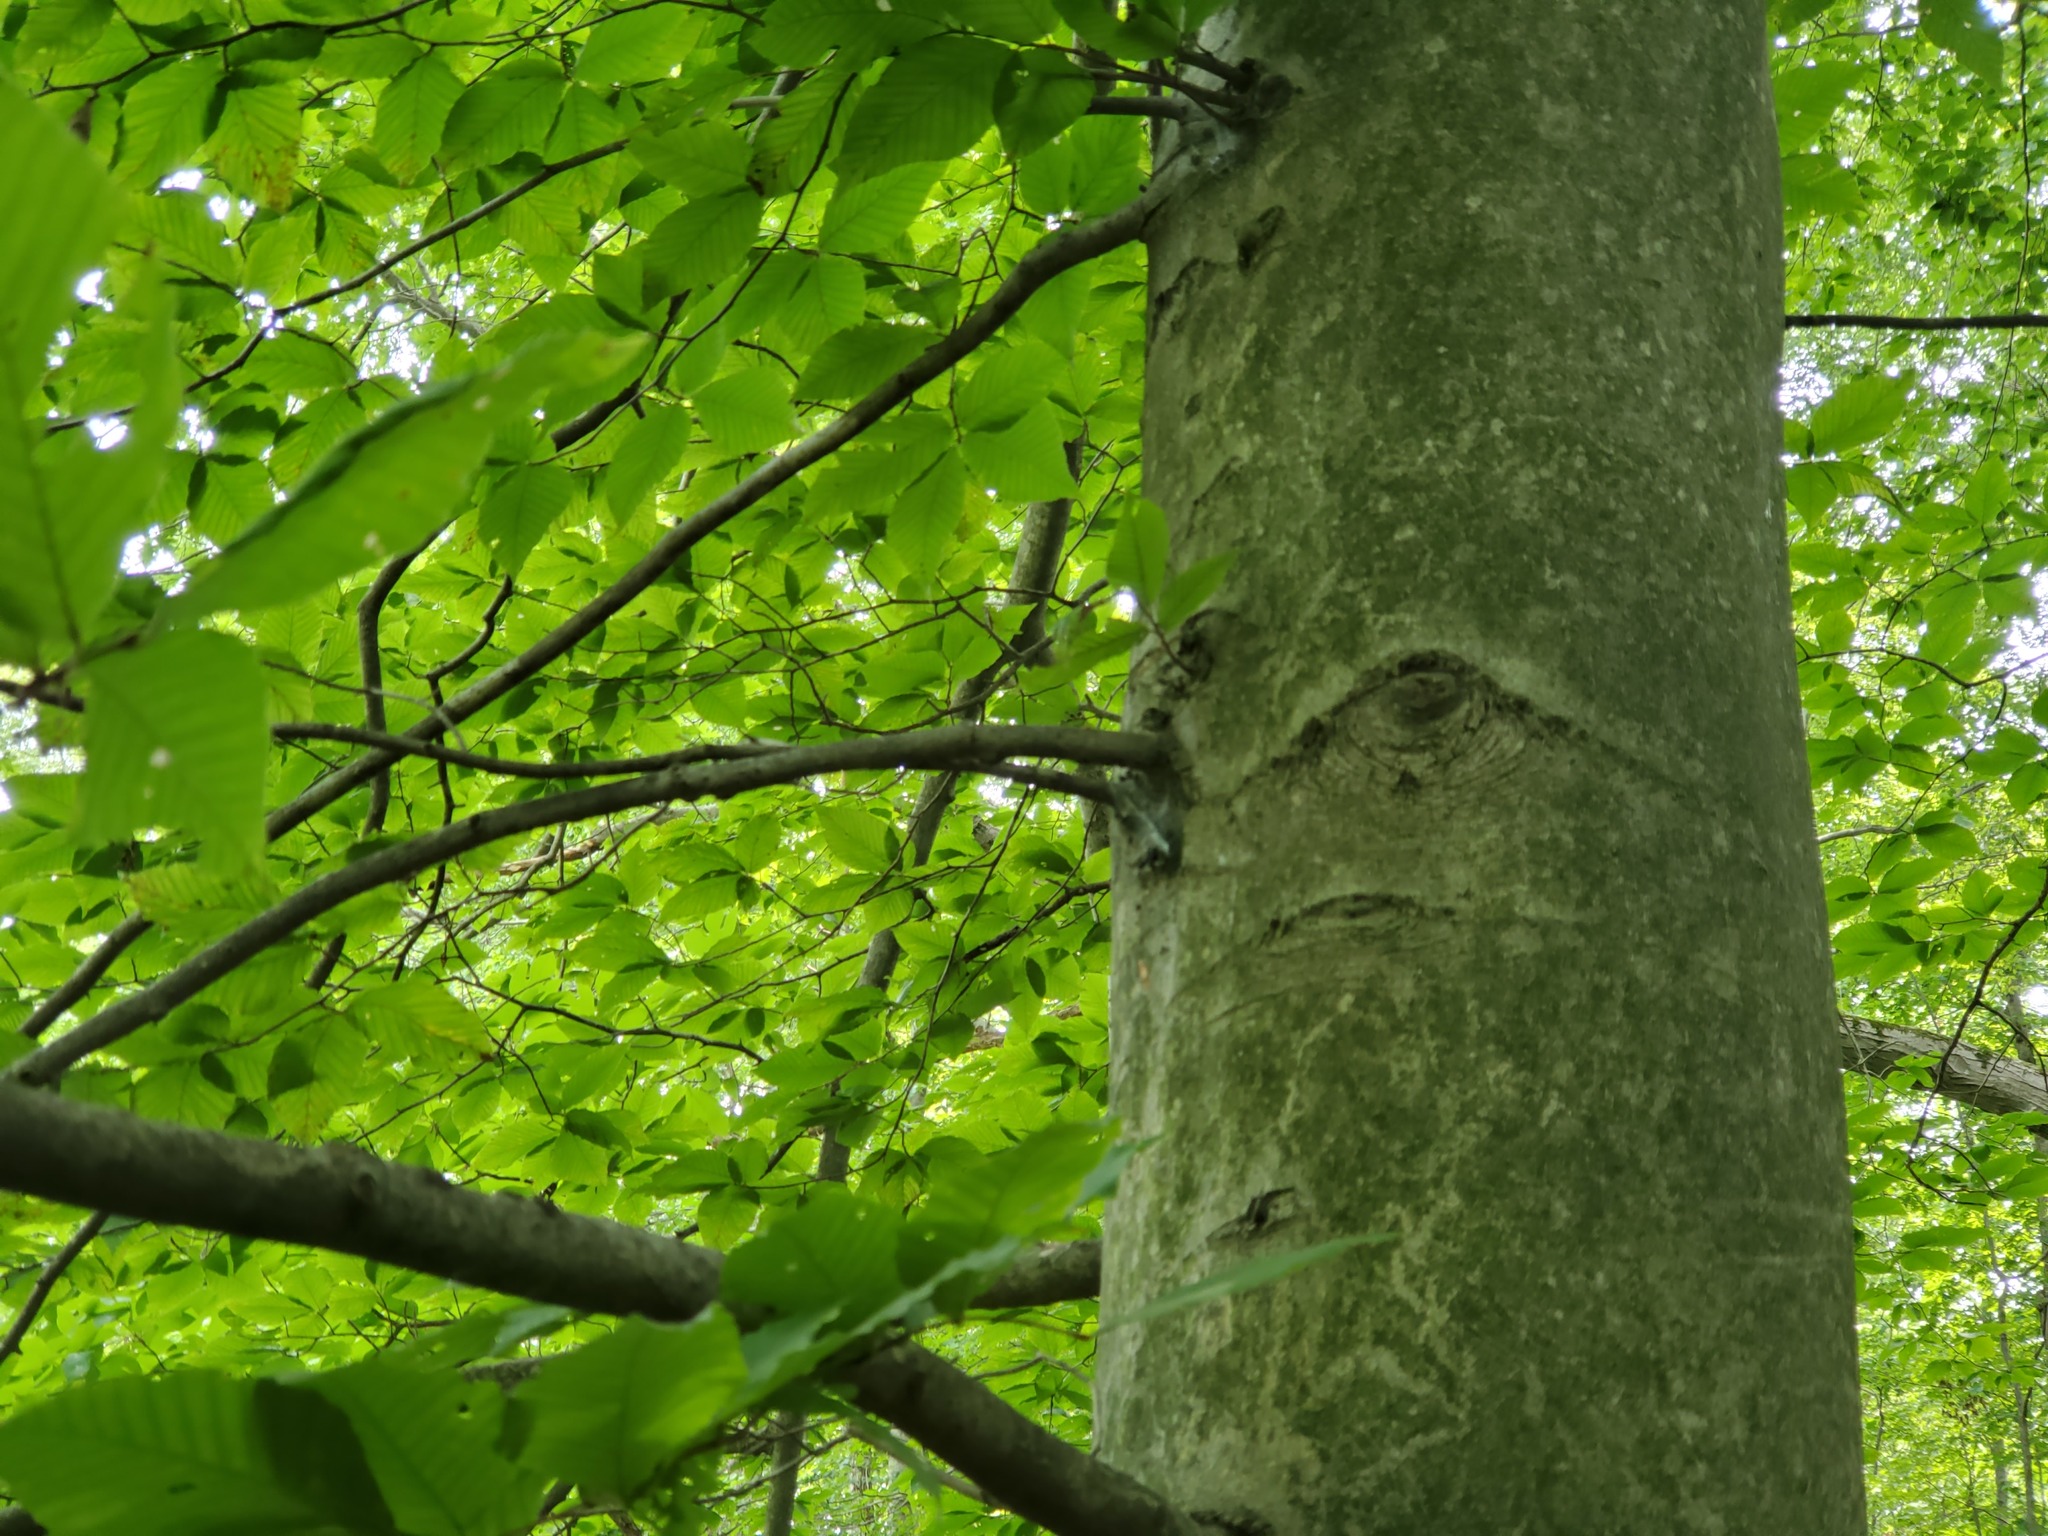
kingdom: Plantae
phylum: Tracheophyta
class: Magnoliopsida
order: Fagales
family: Fagaceae
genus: Fagus
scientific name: Fagus grandifolia
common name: American beech
